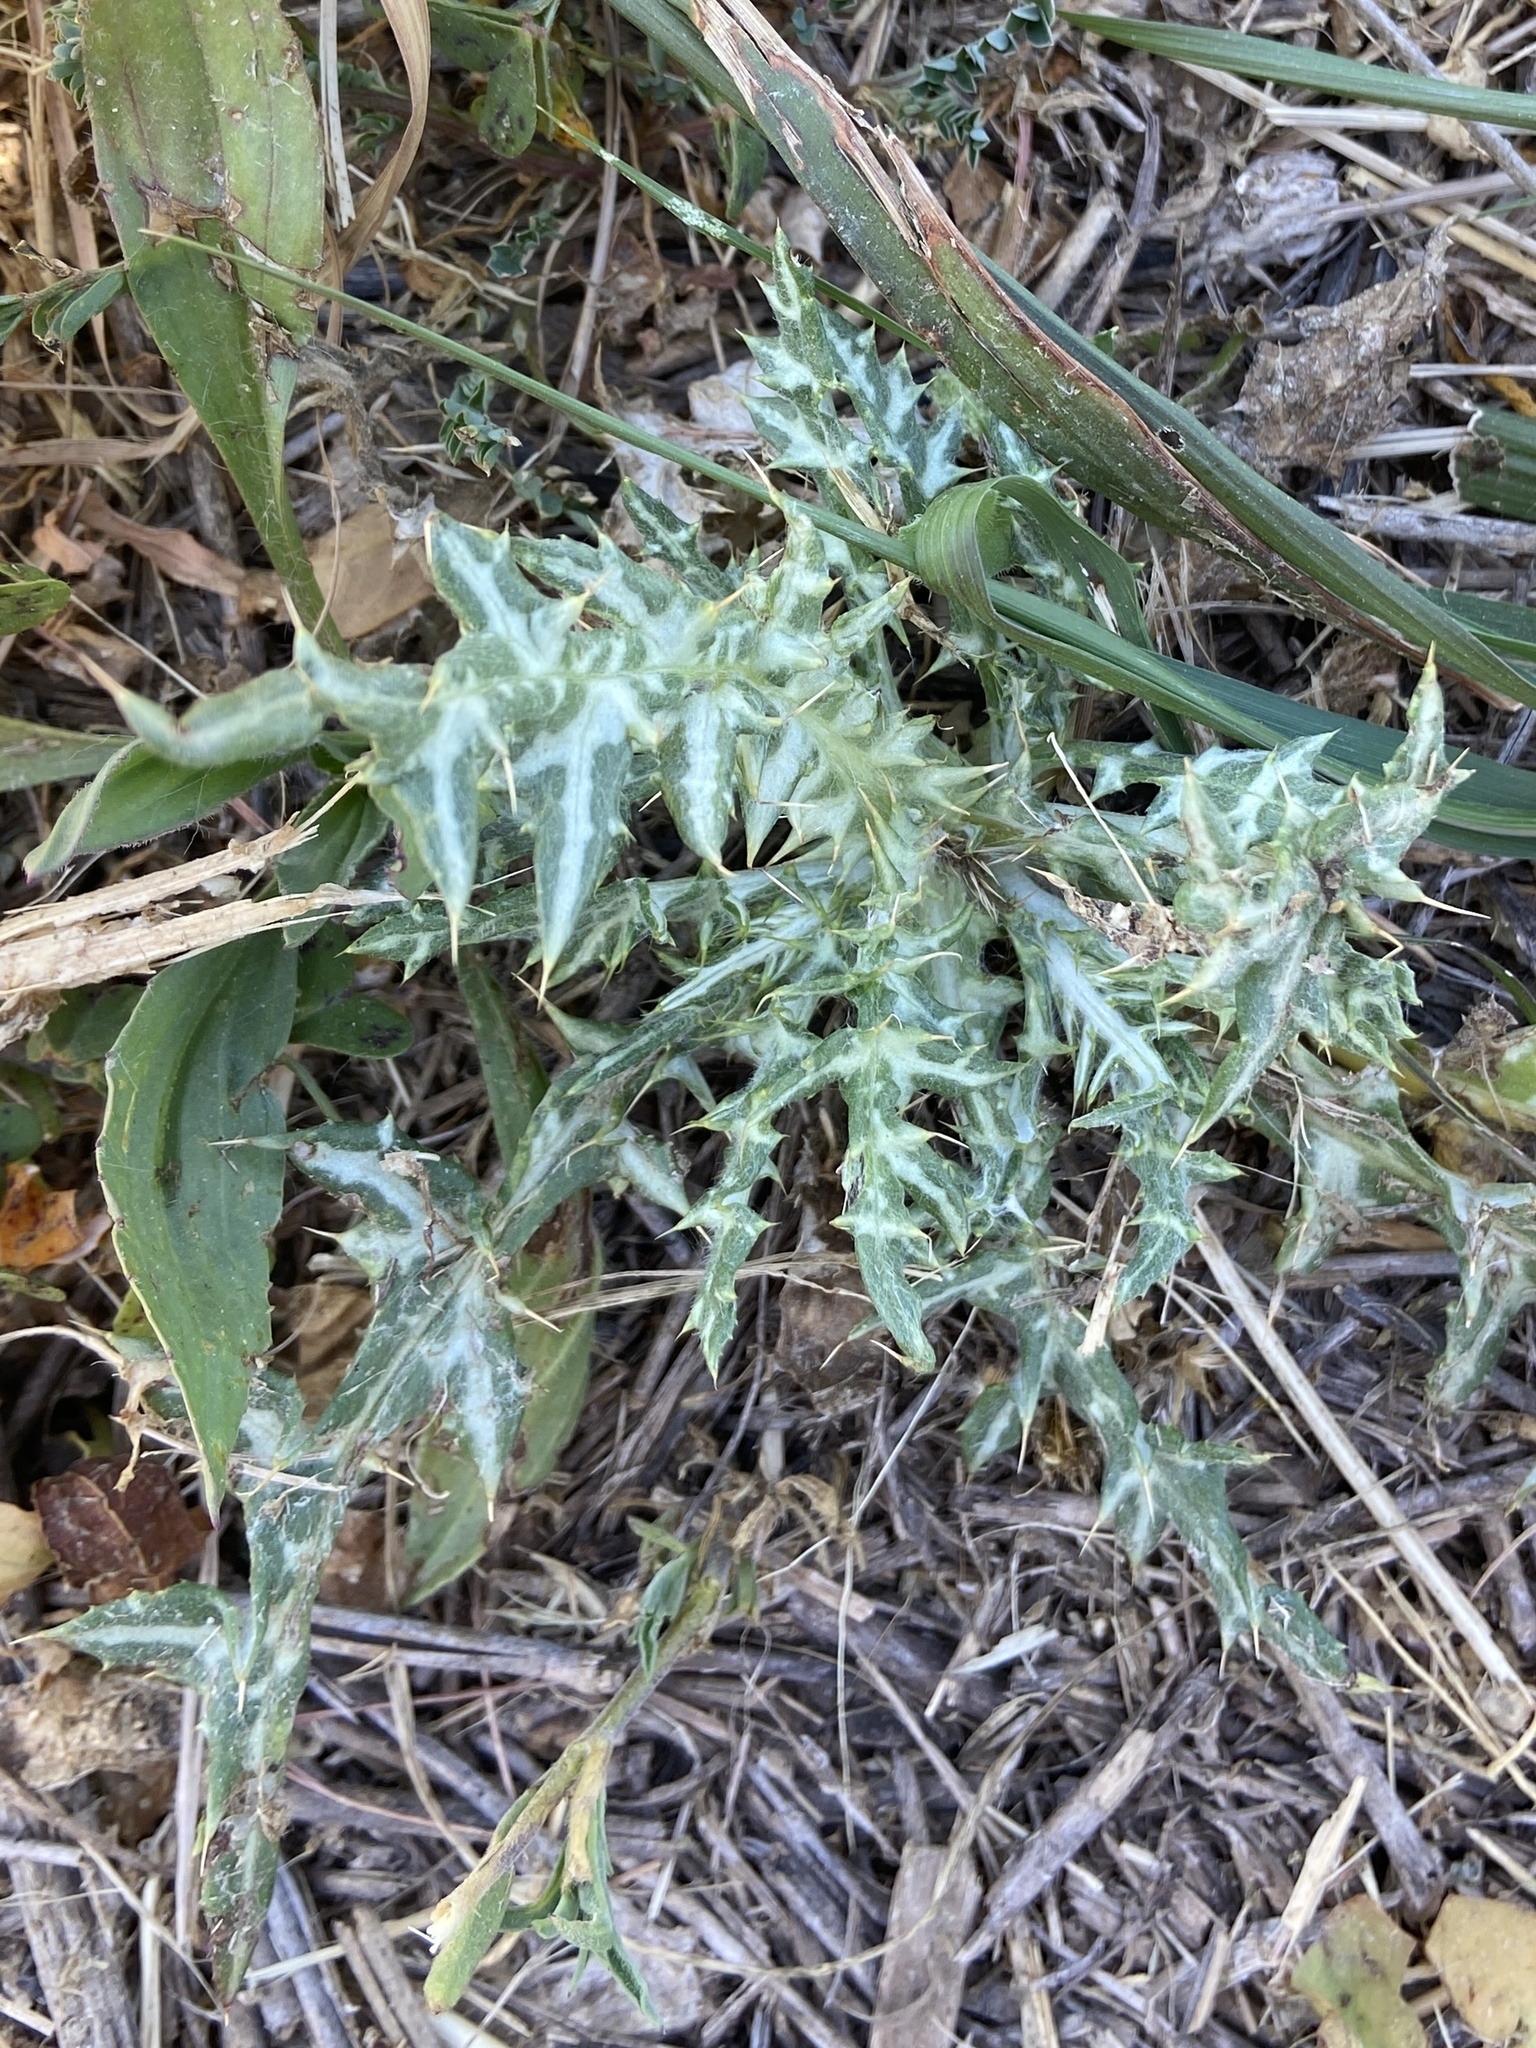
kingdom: Plantae
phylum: Tracheophyta
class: Magnoliopsida
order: Asterales
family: Asteraceae
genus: Galactites
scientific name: Galactites tomentosa
